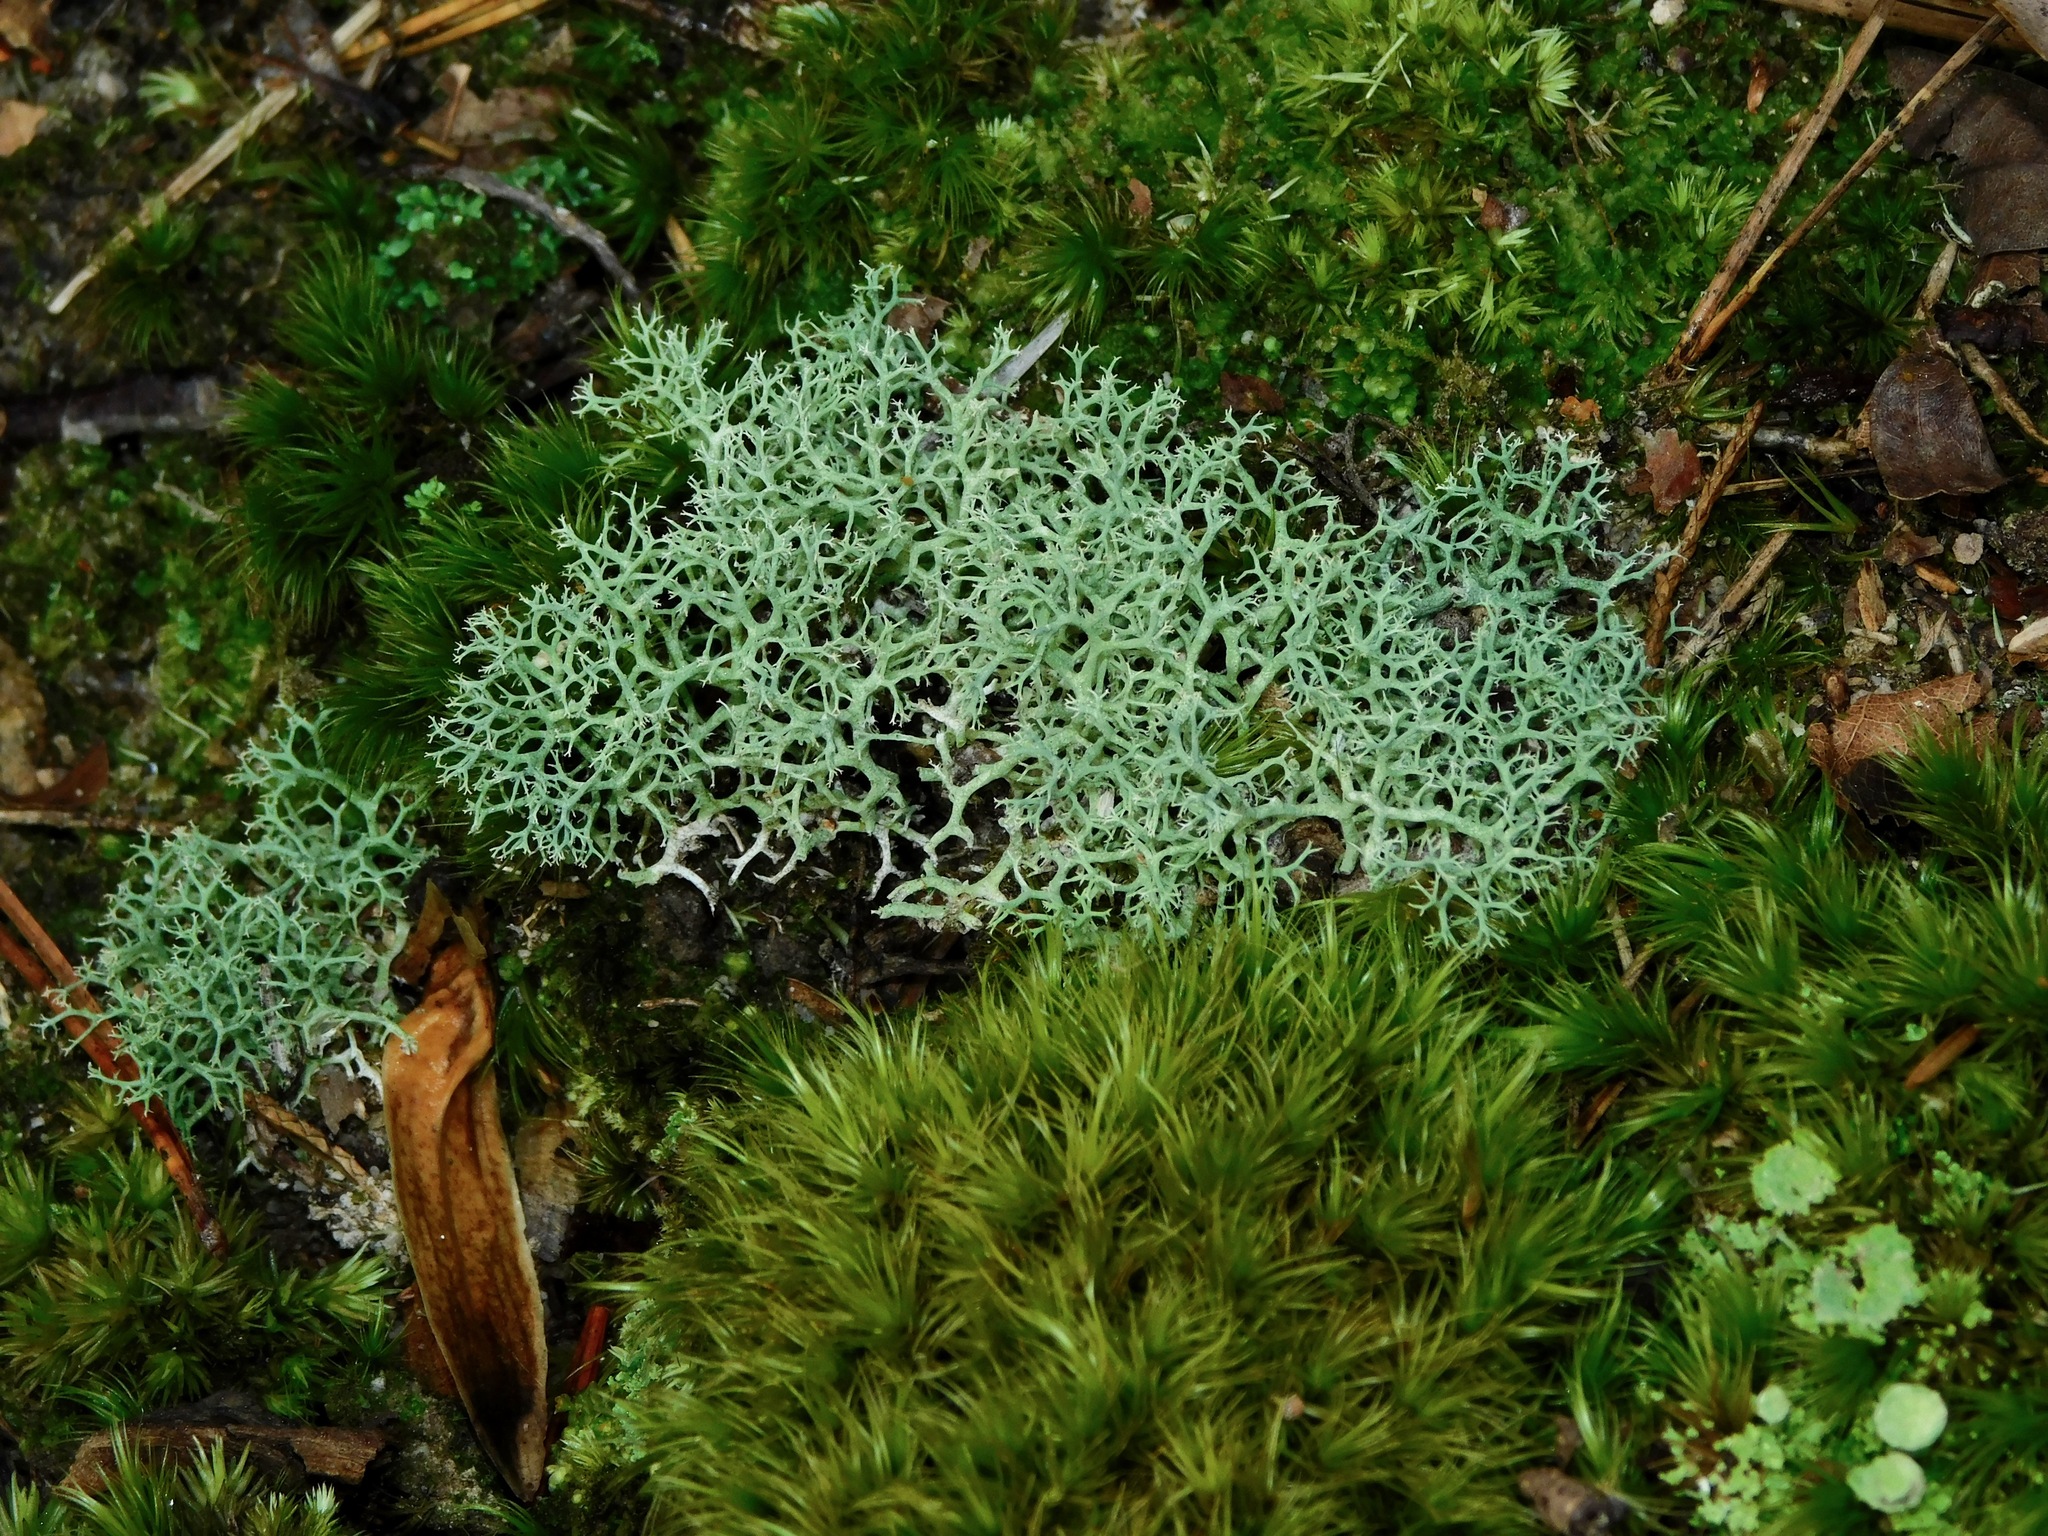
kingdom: Fungi
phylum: Ascomycota
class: Lecanoromycetes
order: Lecanorales
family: Cladoniaceae
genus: Cladonia
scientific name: Cladonia subtenuis
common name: Dixie reindeer lichen
